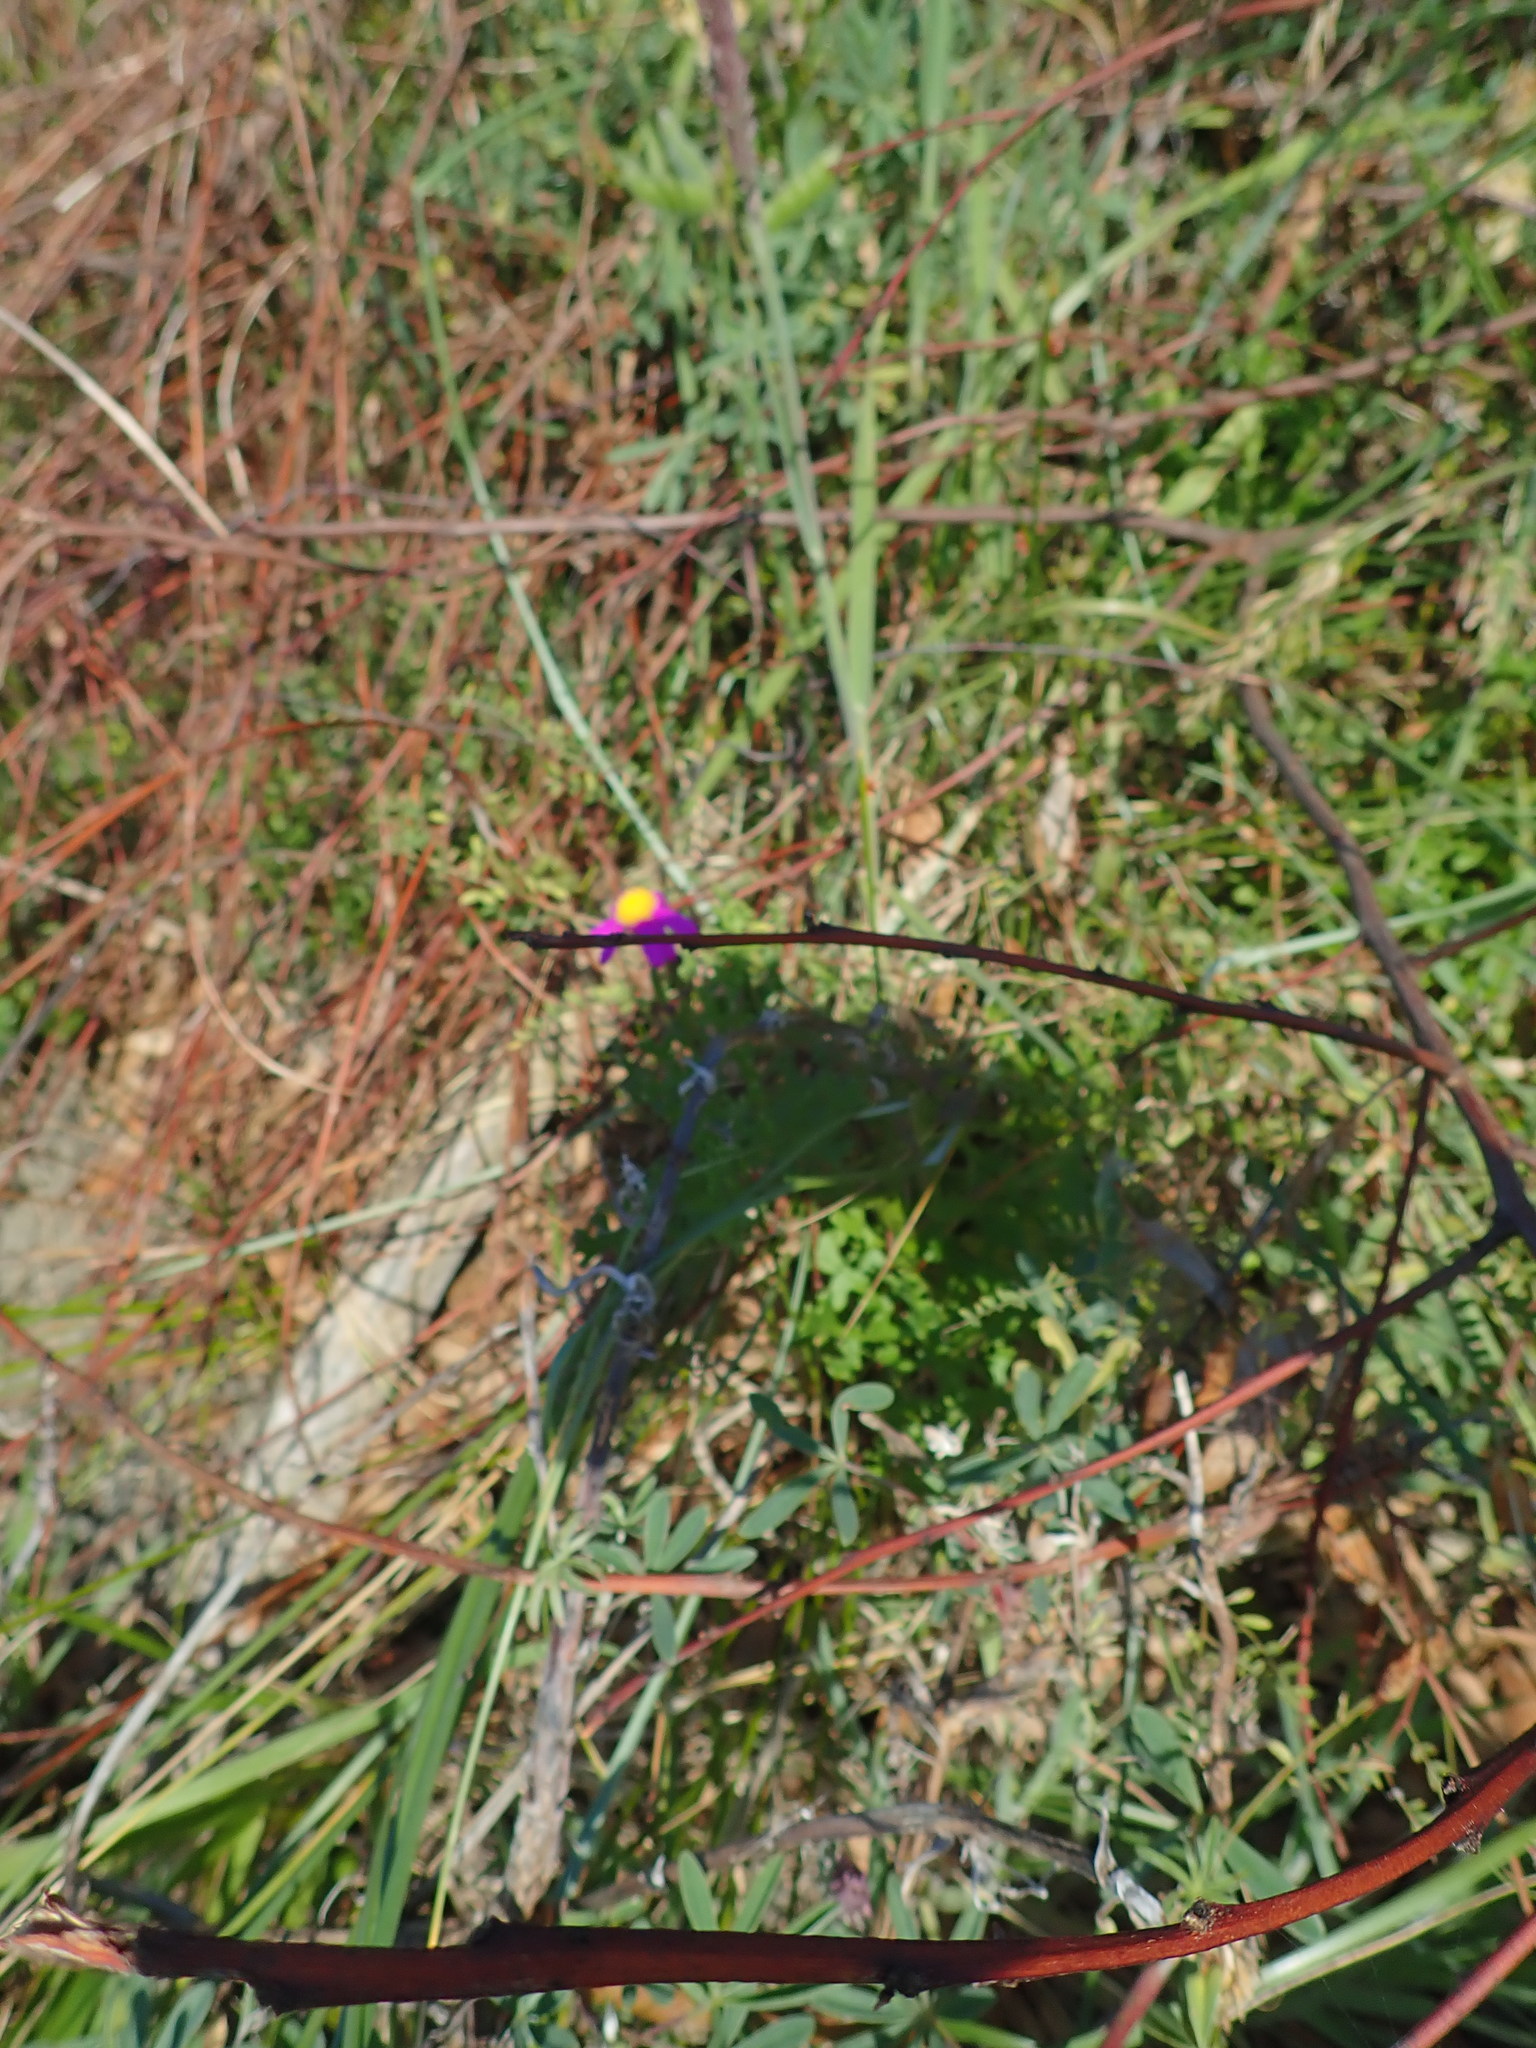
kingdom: Plantae
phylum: Tracheophyta
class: Magnoliopsida
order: Asterales
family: Asteraceae
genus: Senecio
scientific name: Senecio elegans
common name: Purple groundsel
